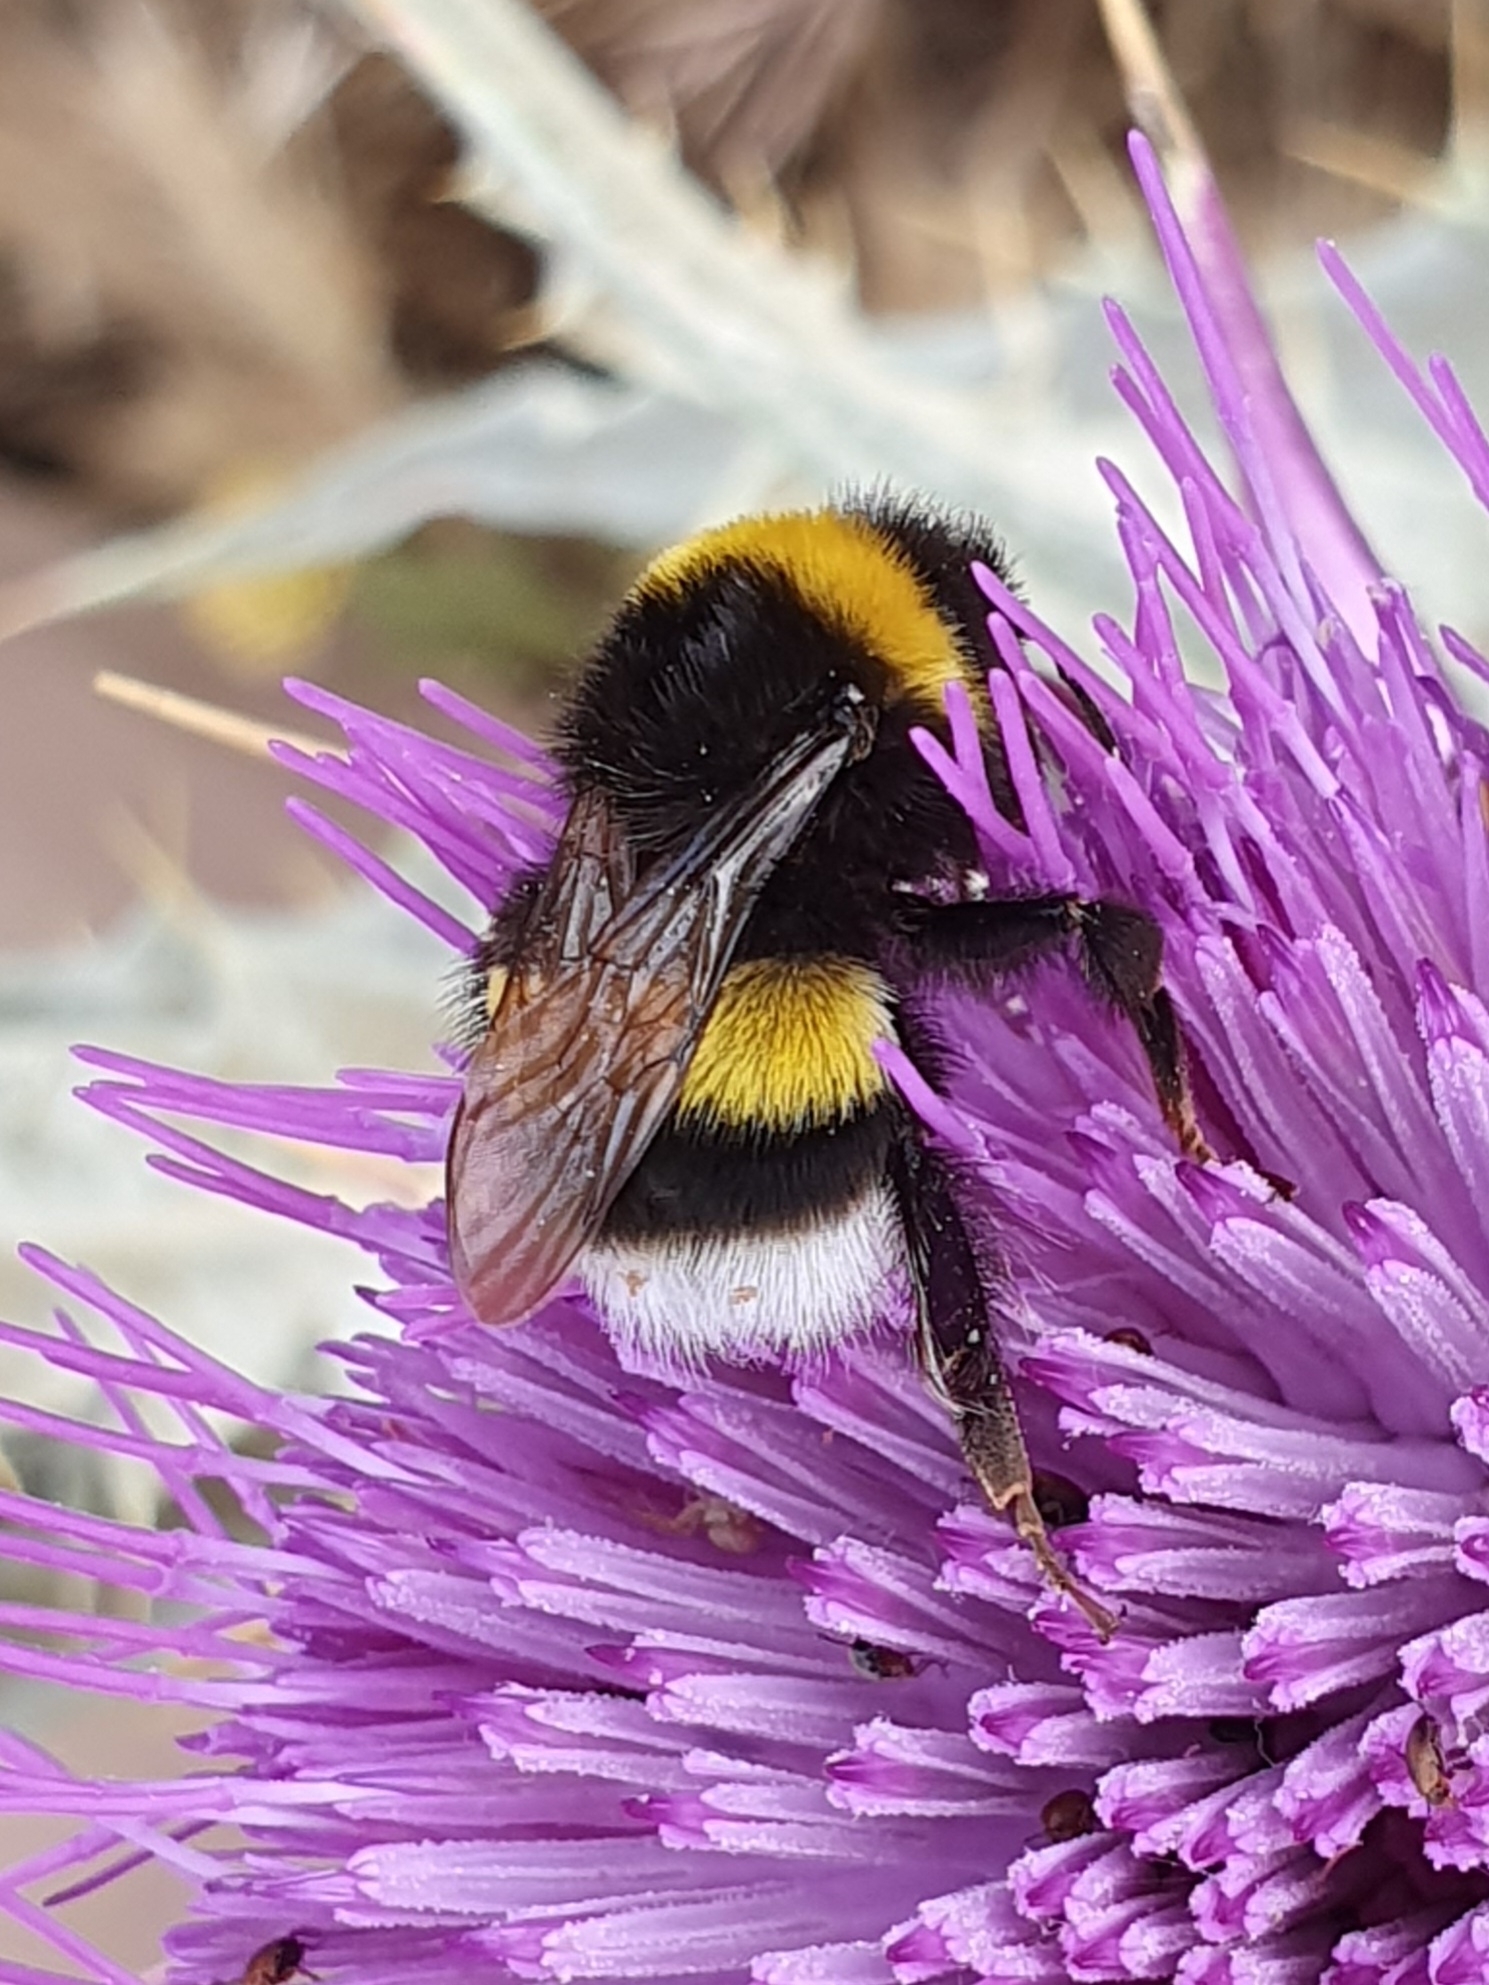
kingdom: Animalia
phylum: Arthropoda
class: Insecta
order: Hymenoptera
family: Apidae
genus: Bombus
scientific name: Bombus terrestris
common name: Buff-tailed bumblebee
